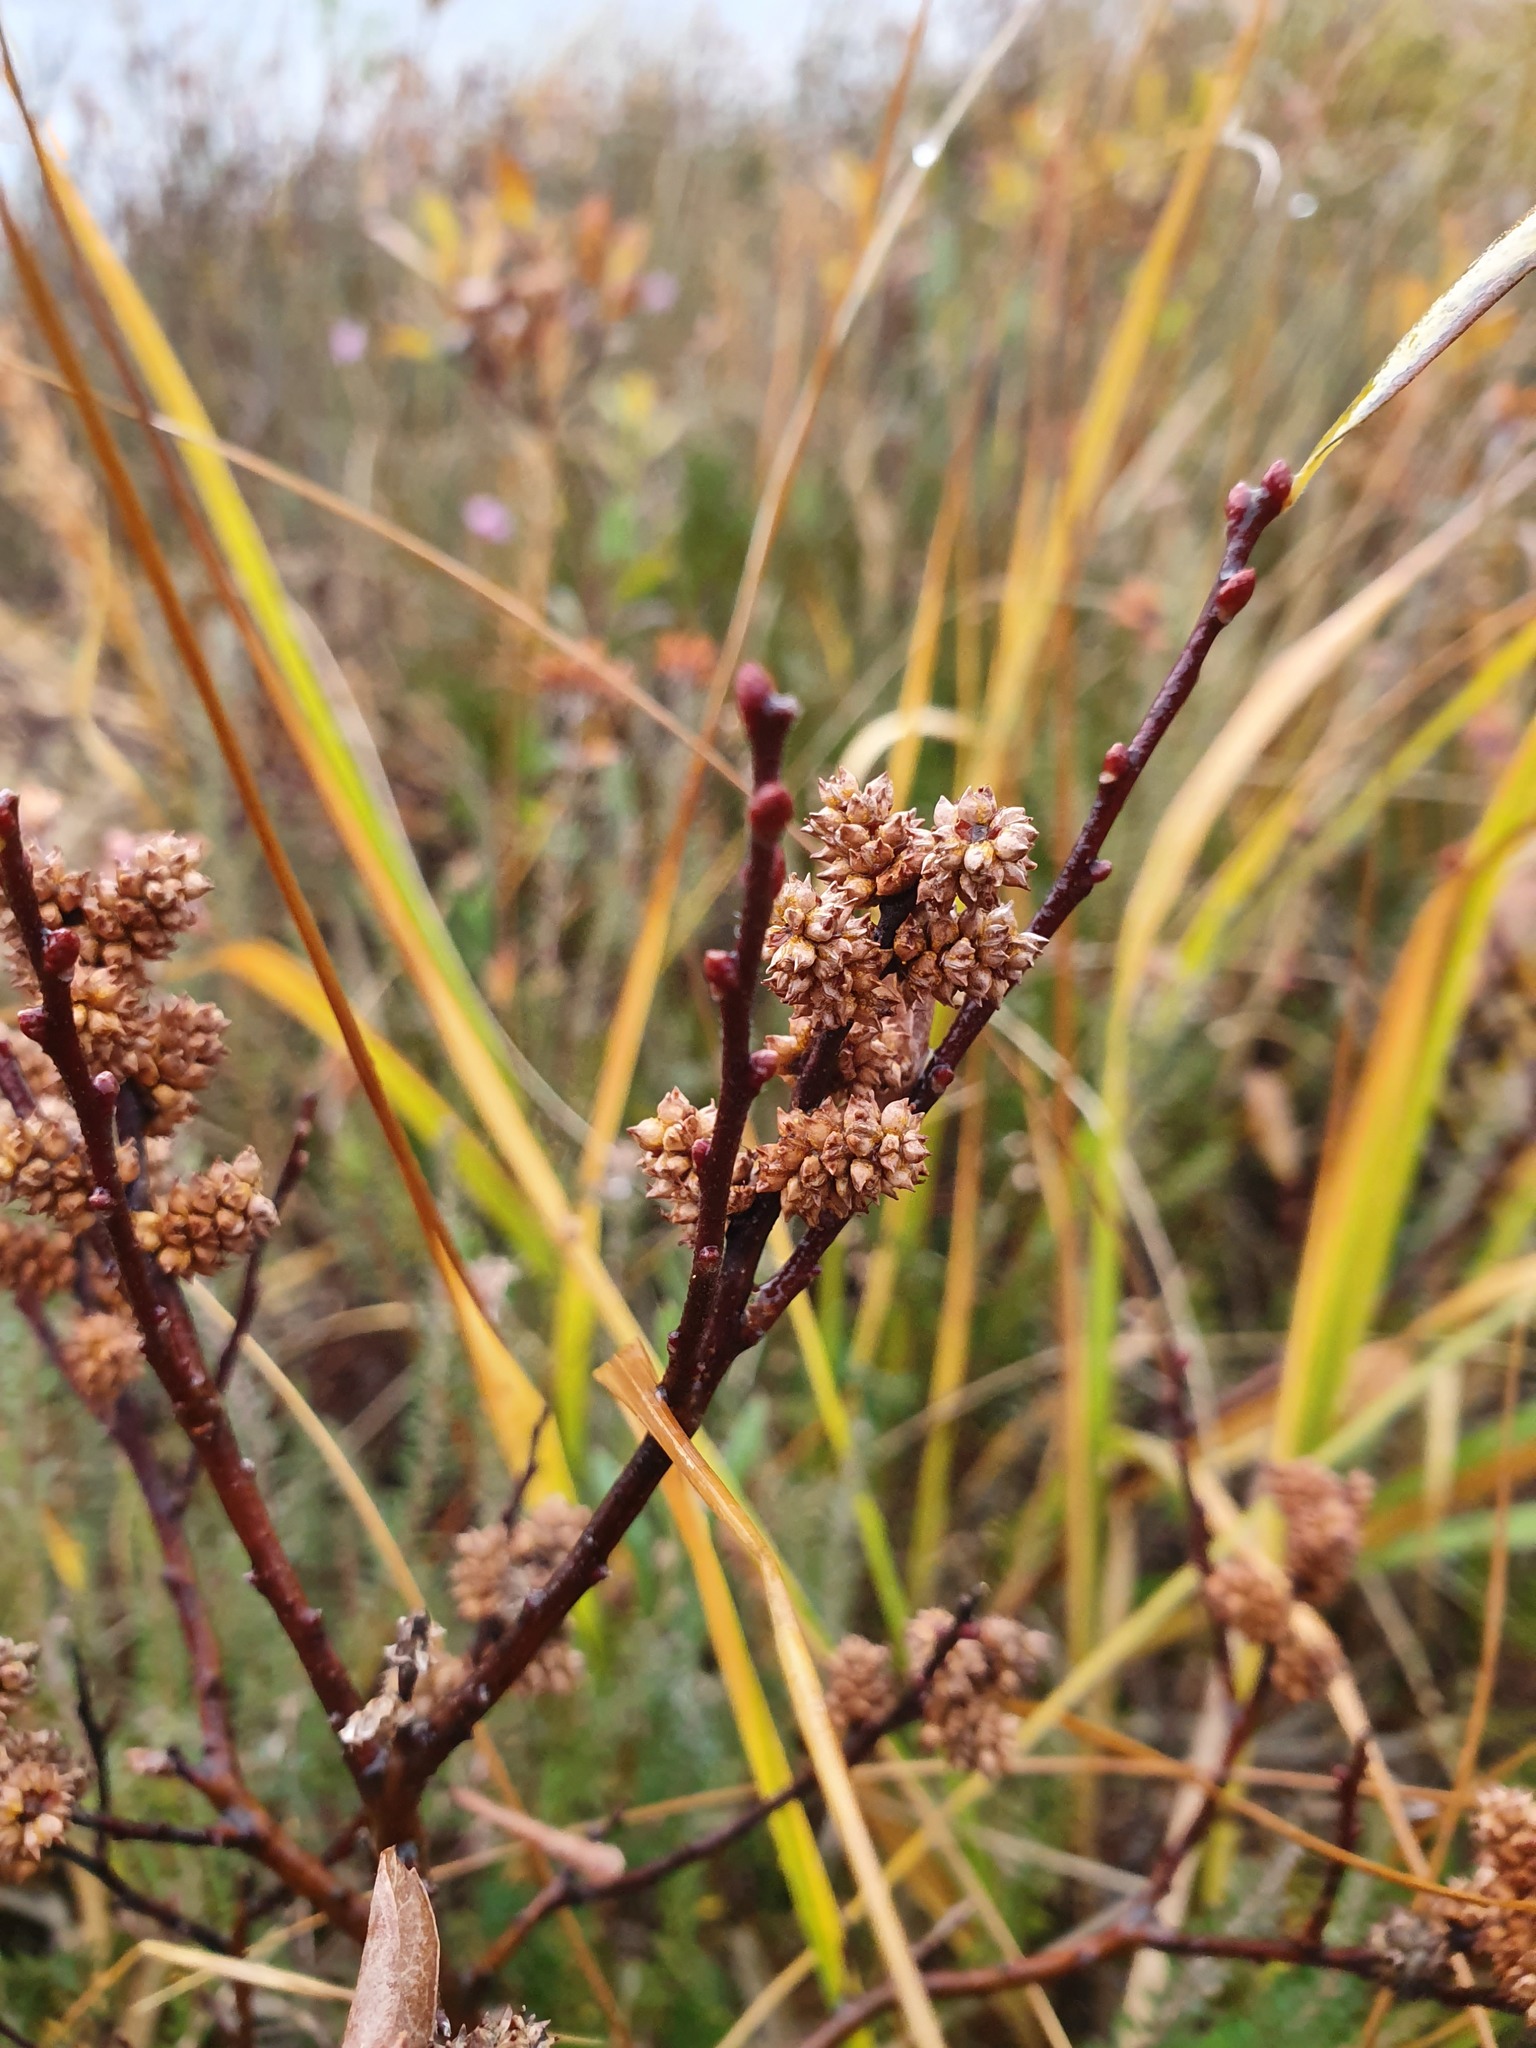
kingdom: Plantae
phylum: Tracheophyta
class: Magnoliopsida
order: Fagales
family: Myricaceae
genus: Myrica
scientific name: Myrica gale
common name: Sweet gale
